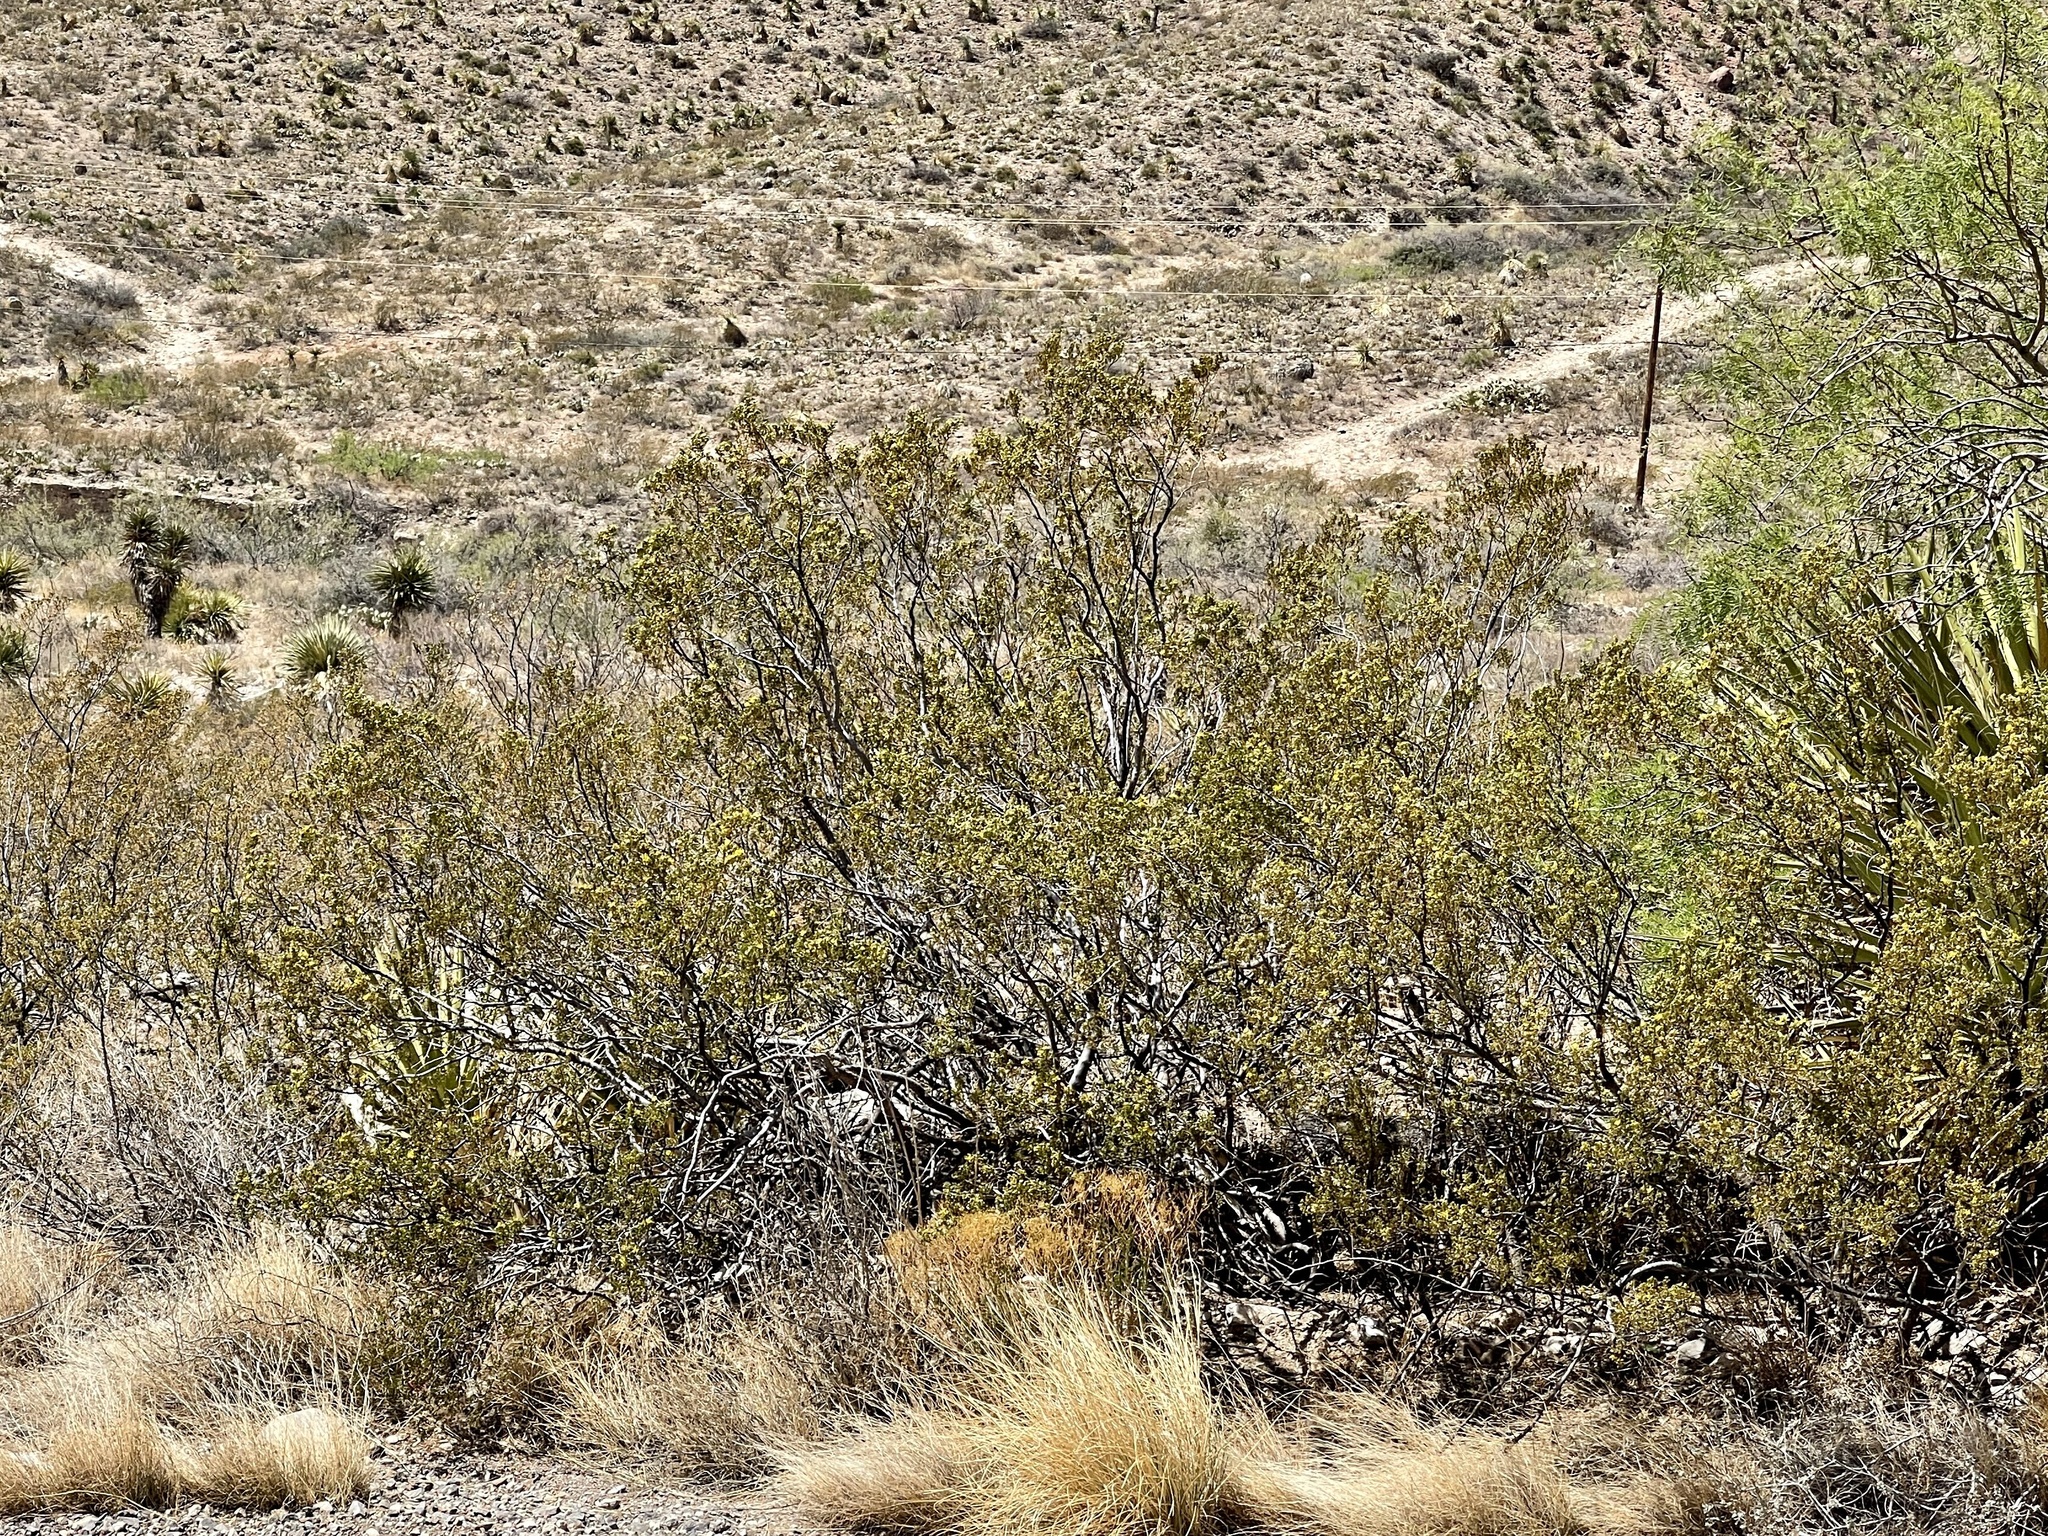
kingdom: Plantae
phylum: Tracheophyta
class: Magnoliopsida
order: Zygophyllales
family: Zygophyllaceae
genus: Larrea
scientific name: Larrea tridentata
